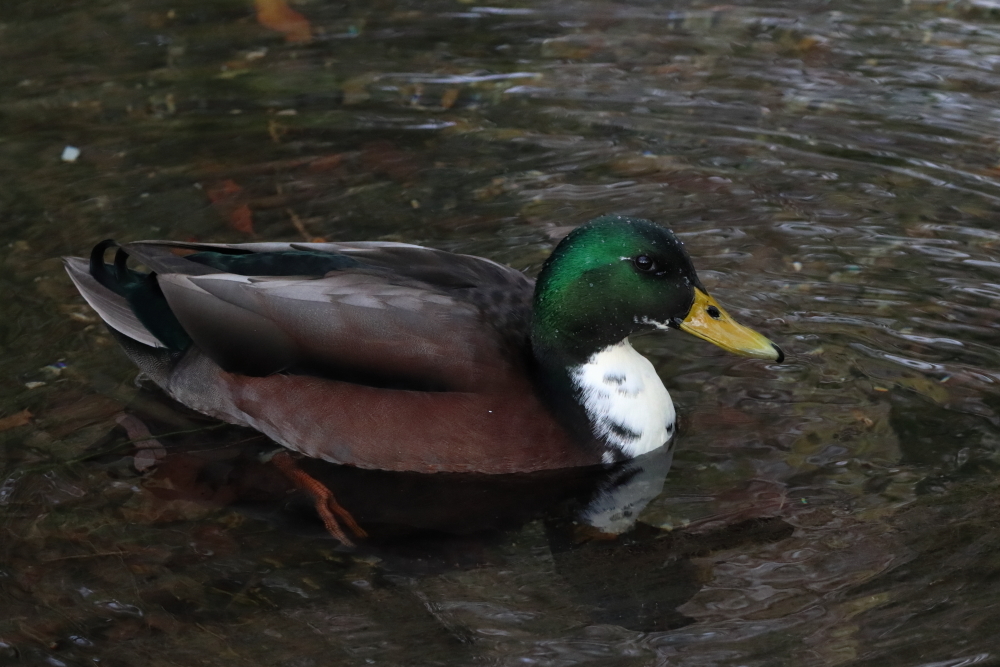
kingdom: Animalia
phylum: Chordata
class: Aves
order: Anseriformes
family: Anatidae
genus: Anas
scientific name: Anas platyrhynchos
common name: Mallard
